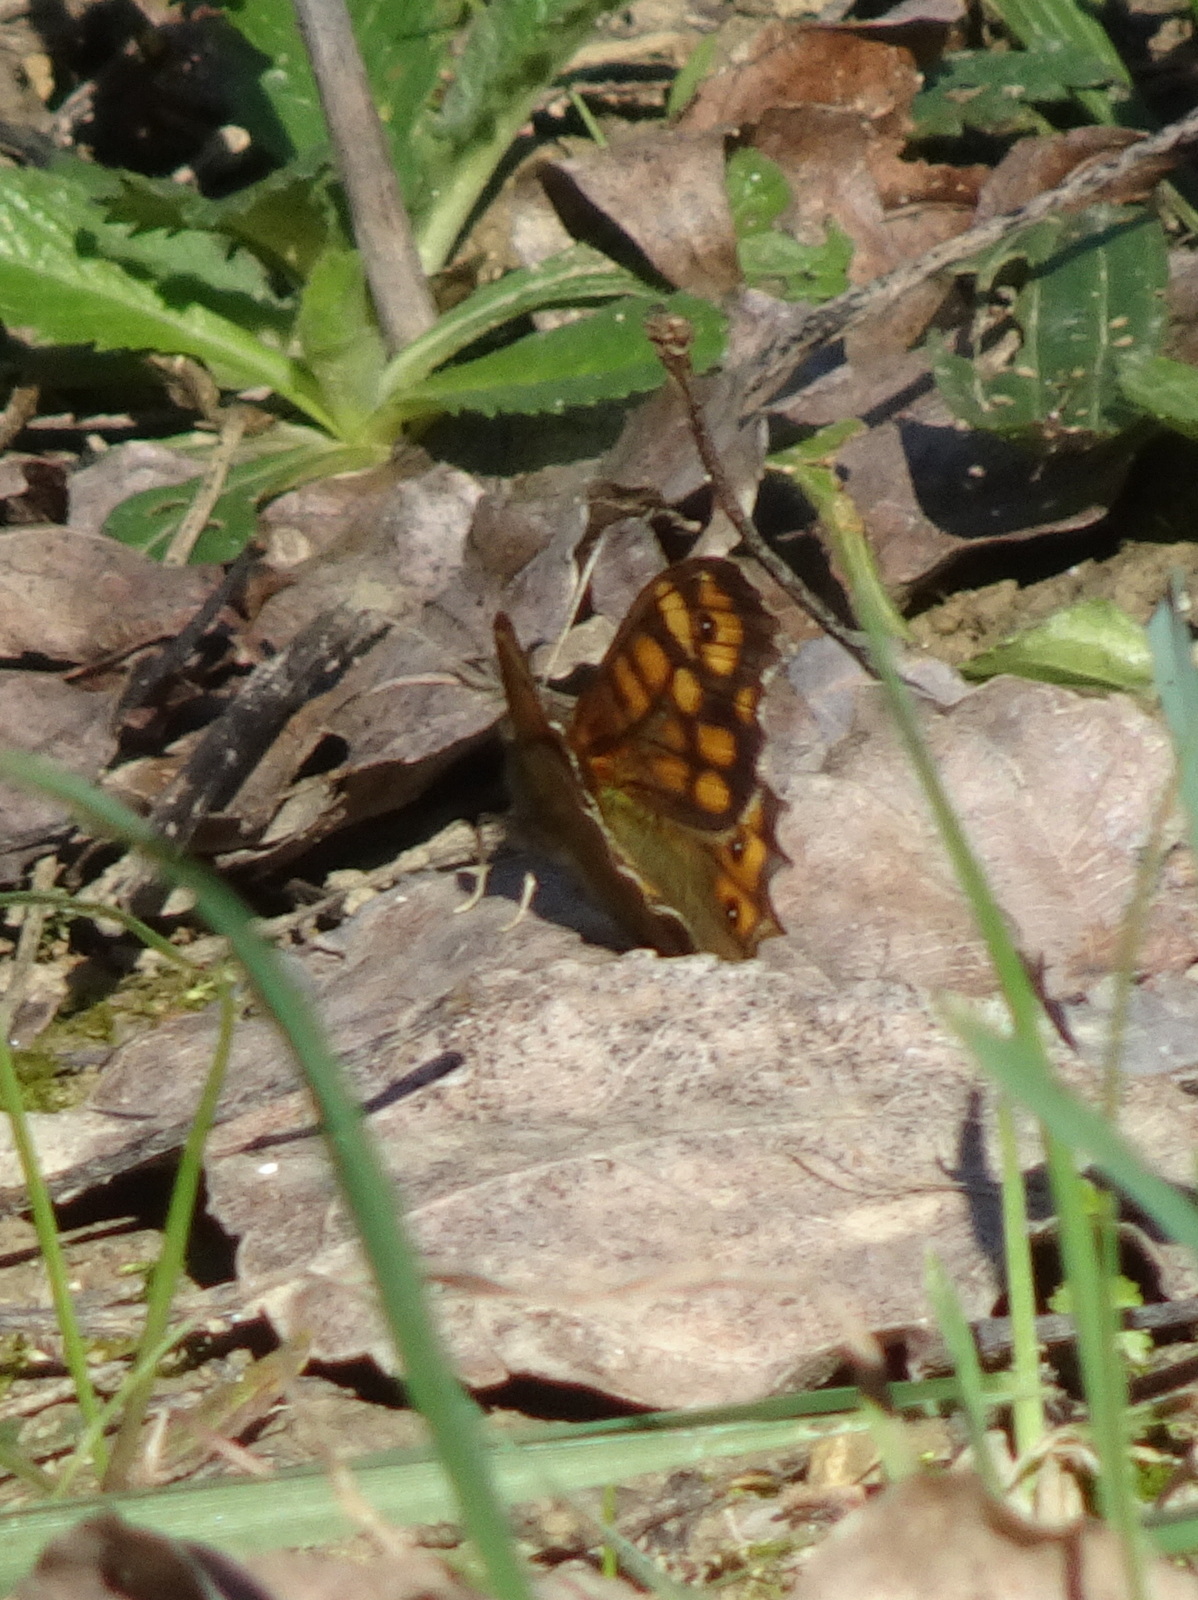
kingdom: Animalia
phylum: Arthropoda
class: Insecta
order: Lepidoptera
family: Nymphalidae
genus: Pararge
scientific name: Pararge aegeria
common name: Speckled wood
